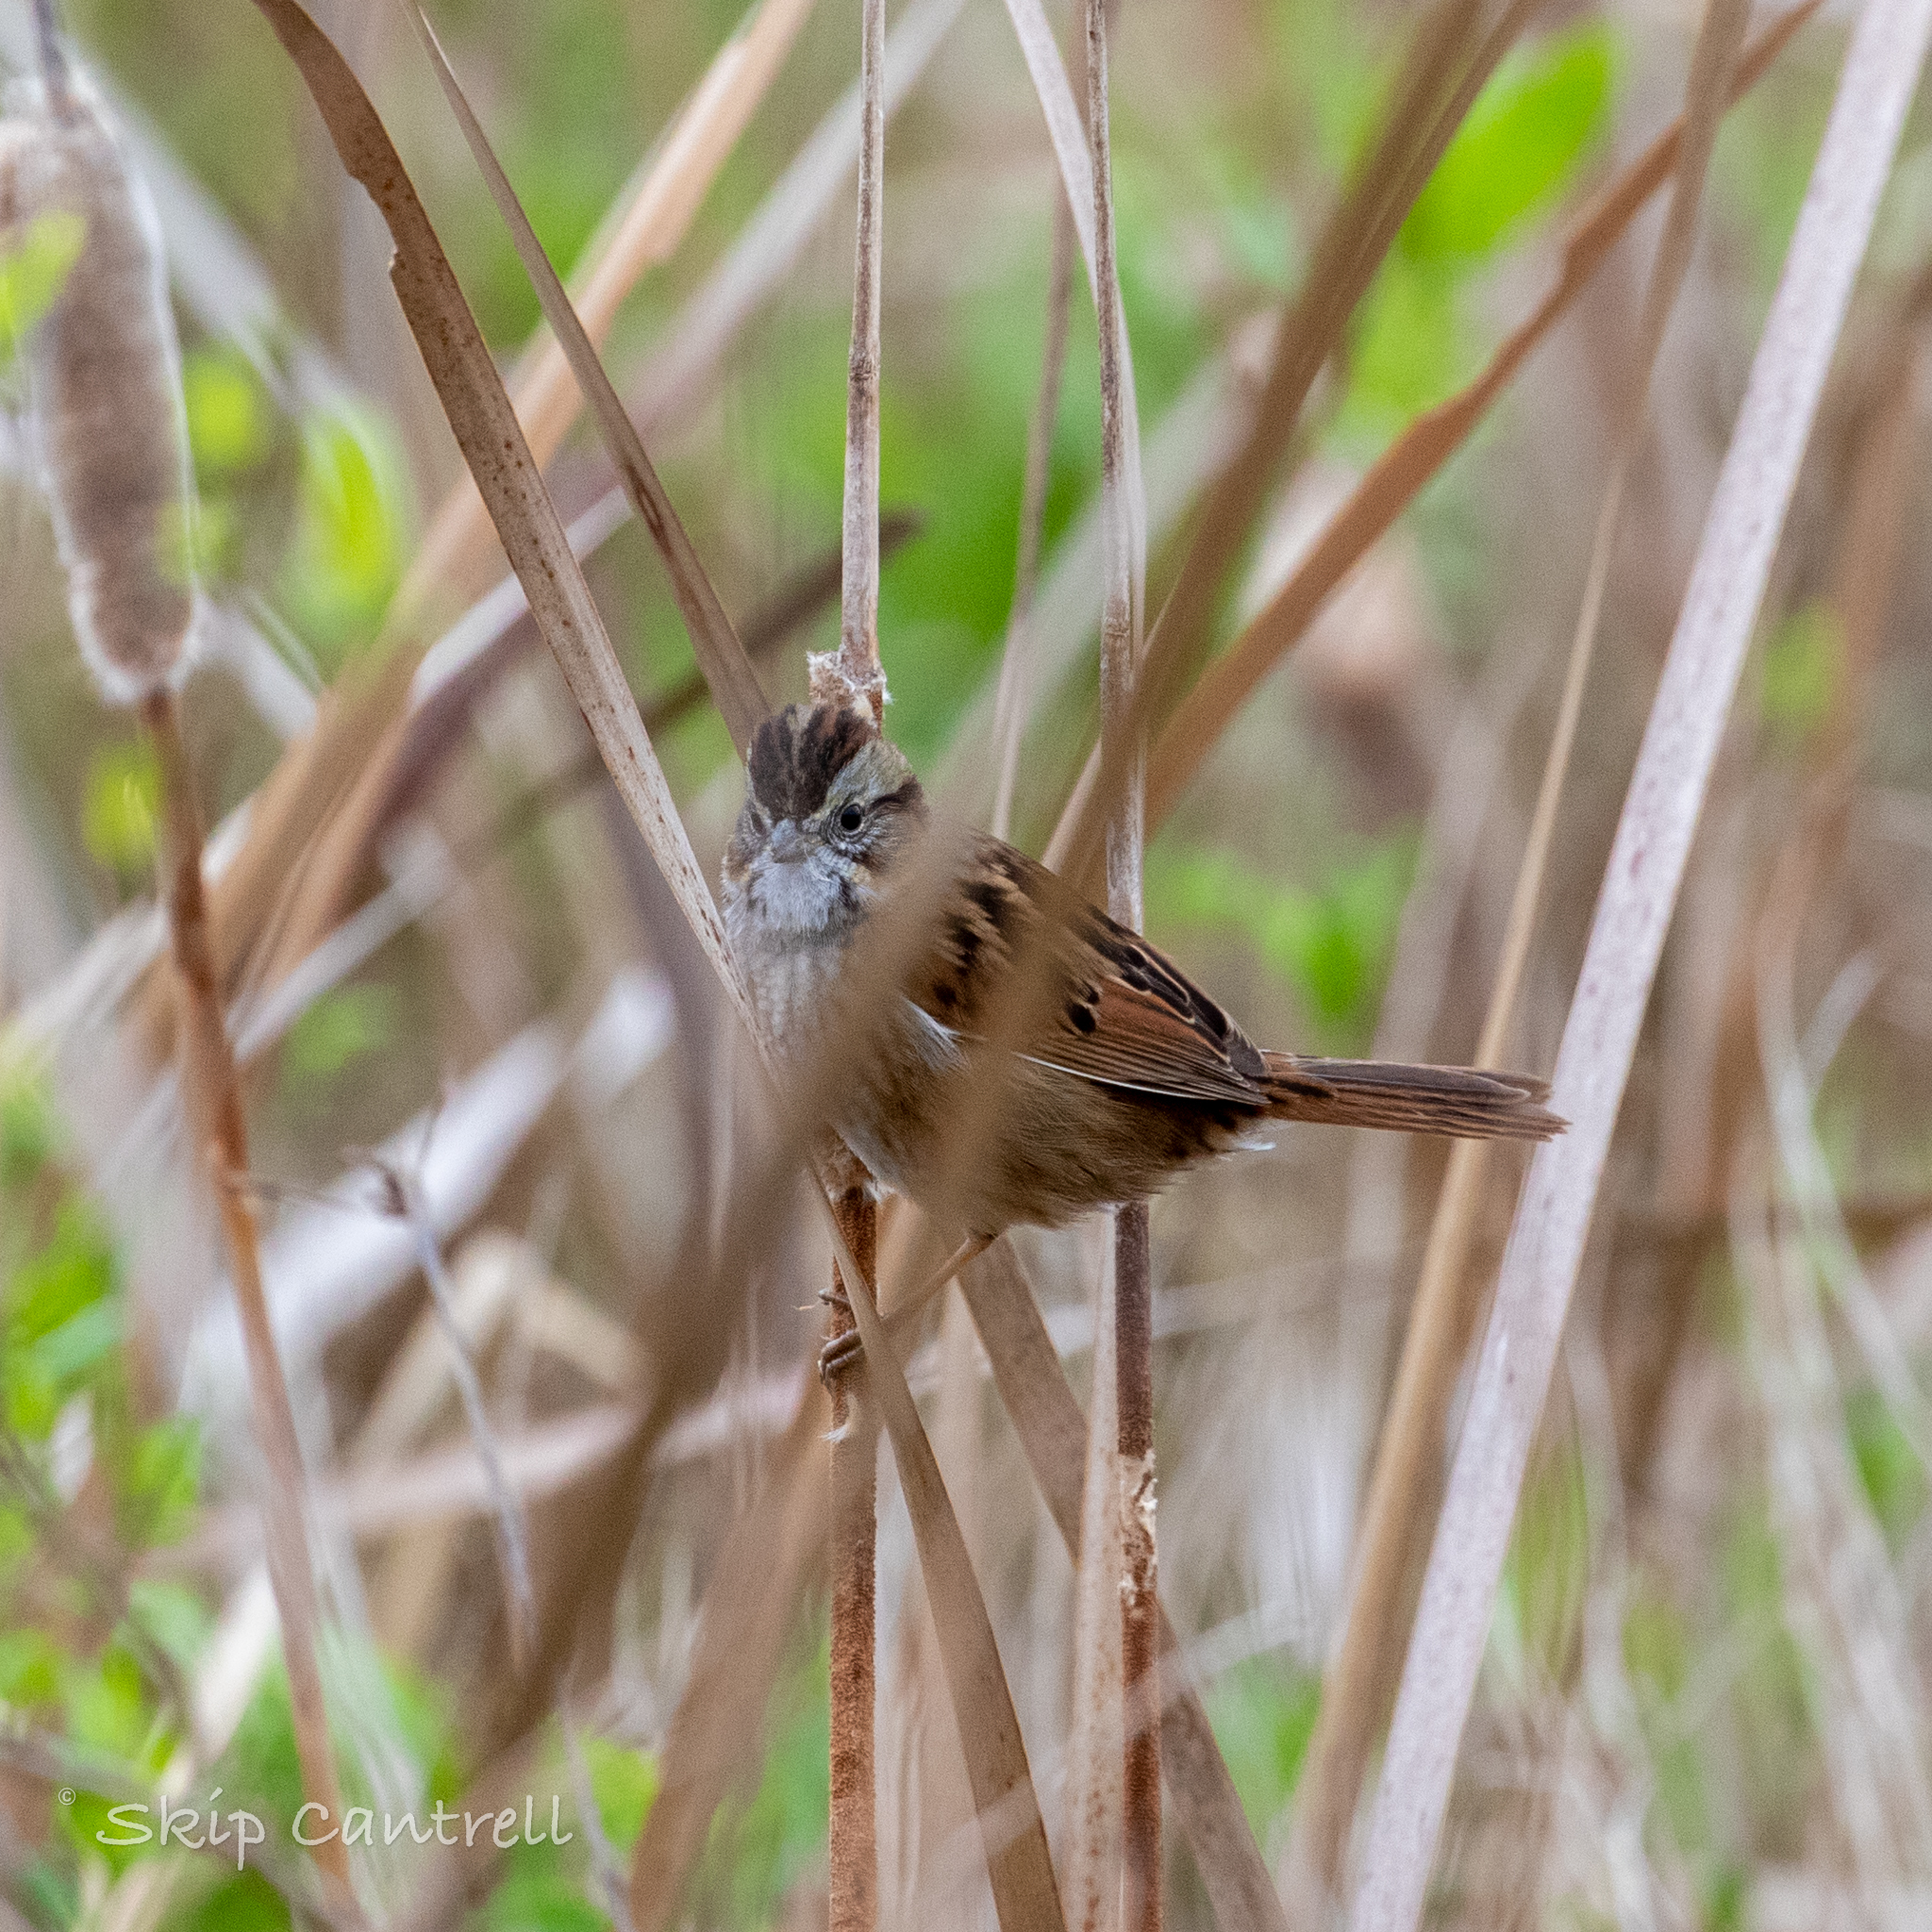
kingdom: Animalia
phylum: Chordata
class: Aves
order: Passeriformes
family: Passerellidae
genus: Melospiza
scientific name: Melospiza georgiana
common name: Swamp sparrow
